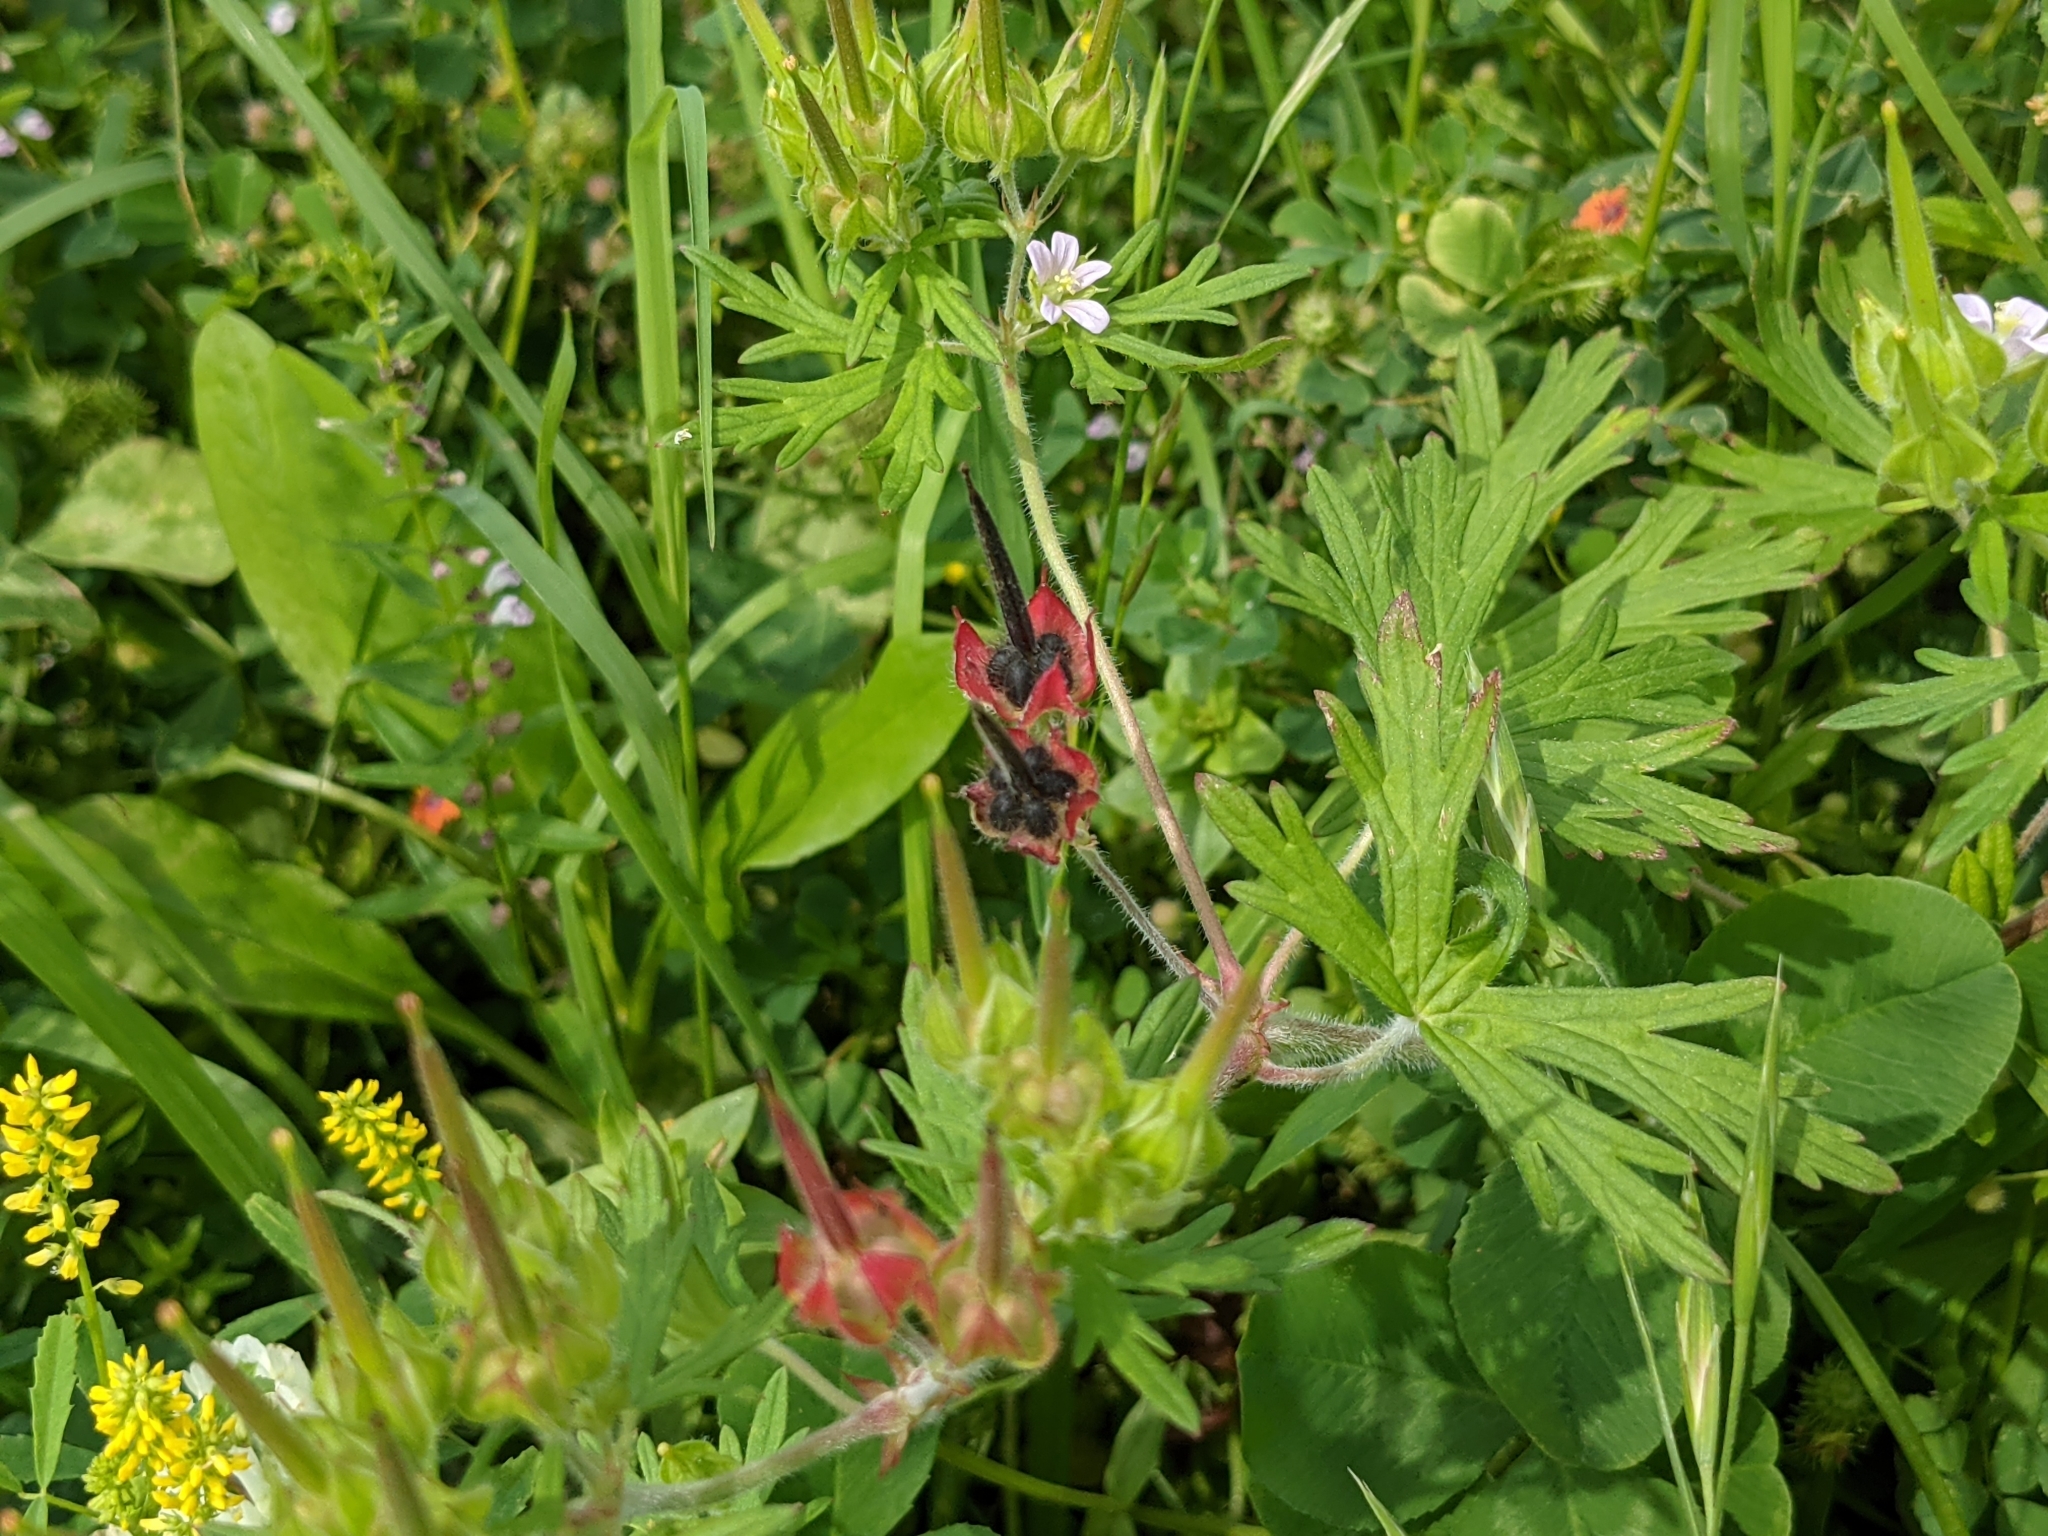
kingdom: Plantae
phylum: Tracheophyta
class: Magnoliopsida
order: Fabales
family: Fabaceae
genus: Melilotus
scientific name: Melilotus indicus
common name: Small melilot
